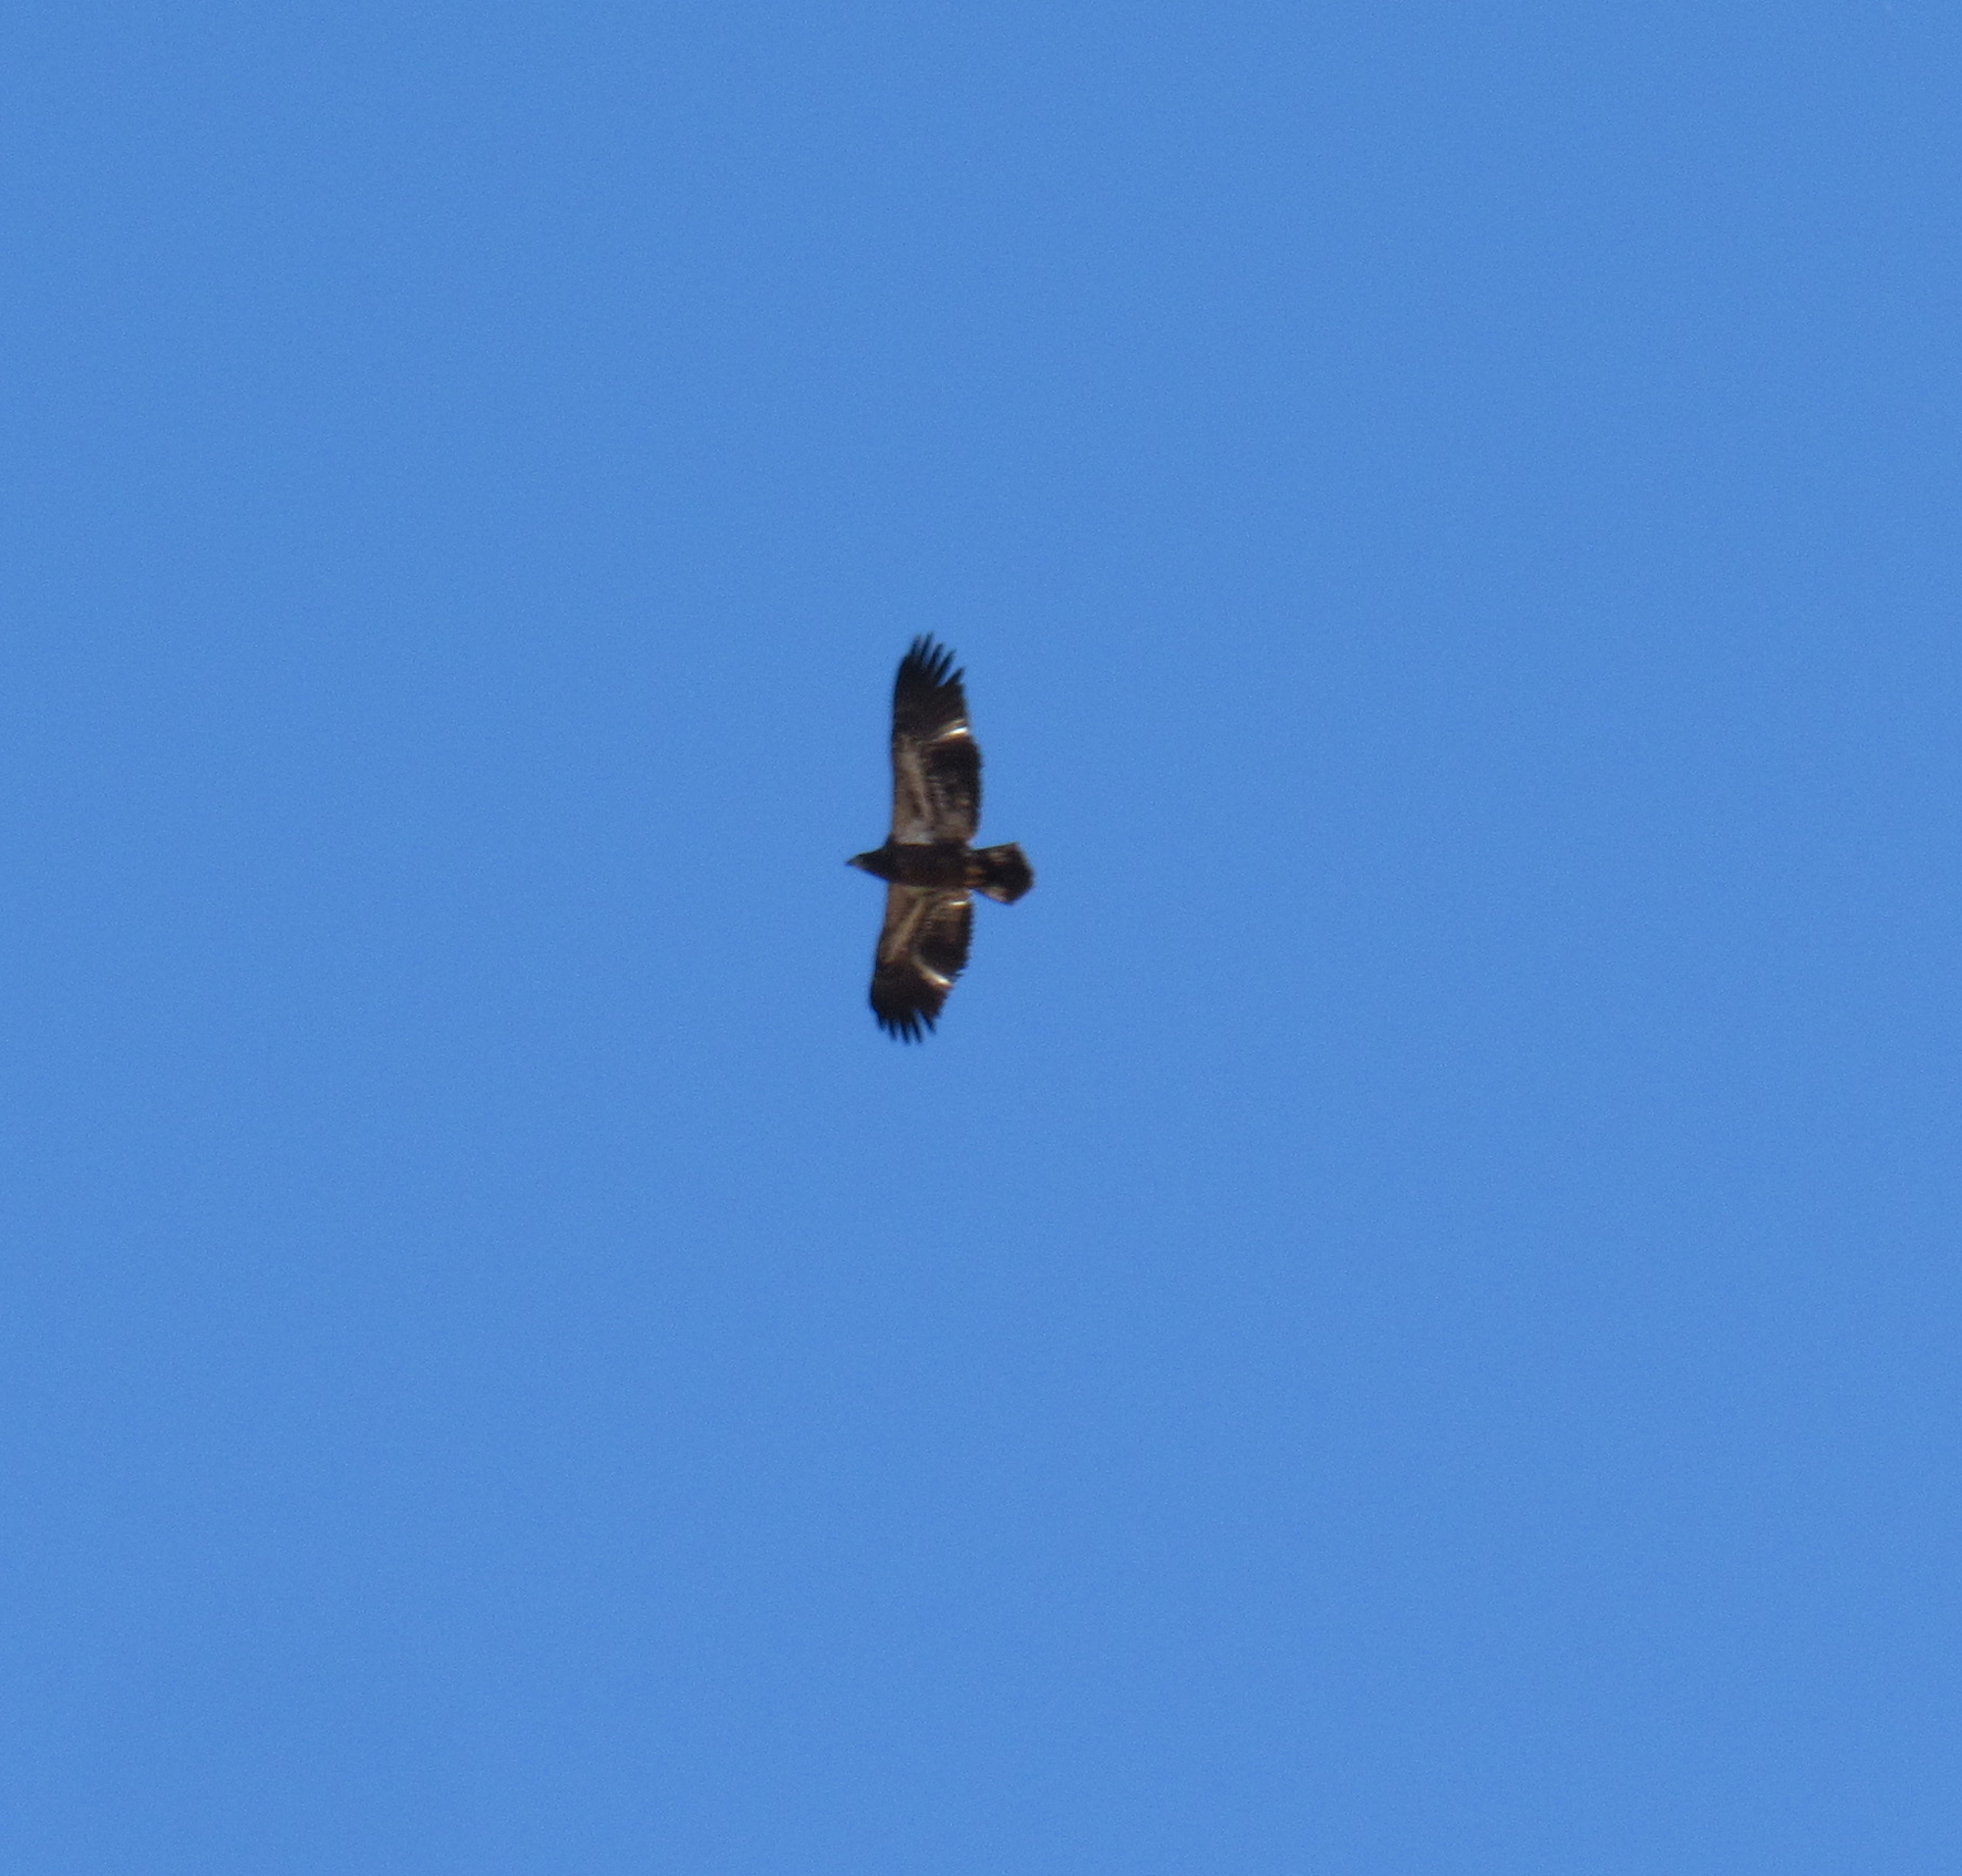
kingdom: Animalia
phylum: Chordata
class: Aves
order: Accipitriformes
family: Accipitridae
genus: Haliaeetus
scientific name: Haliaeetus leucocephalus
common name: Bald eagle
